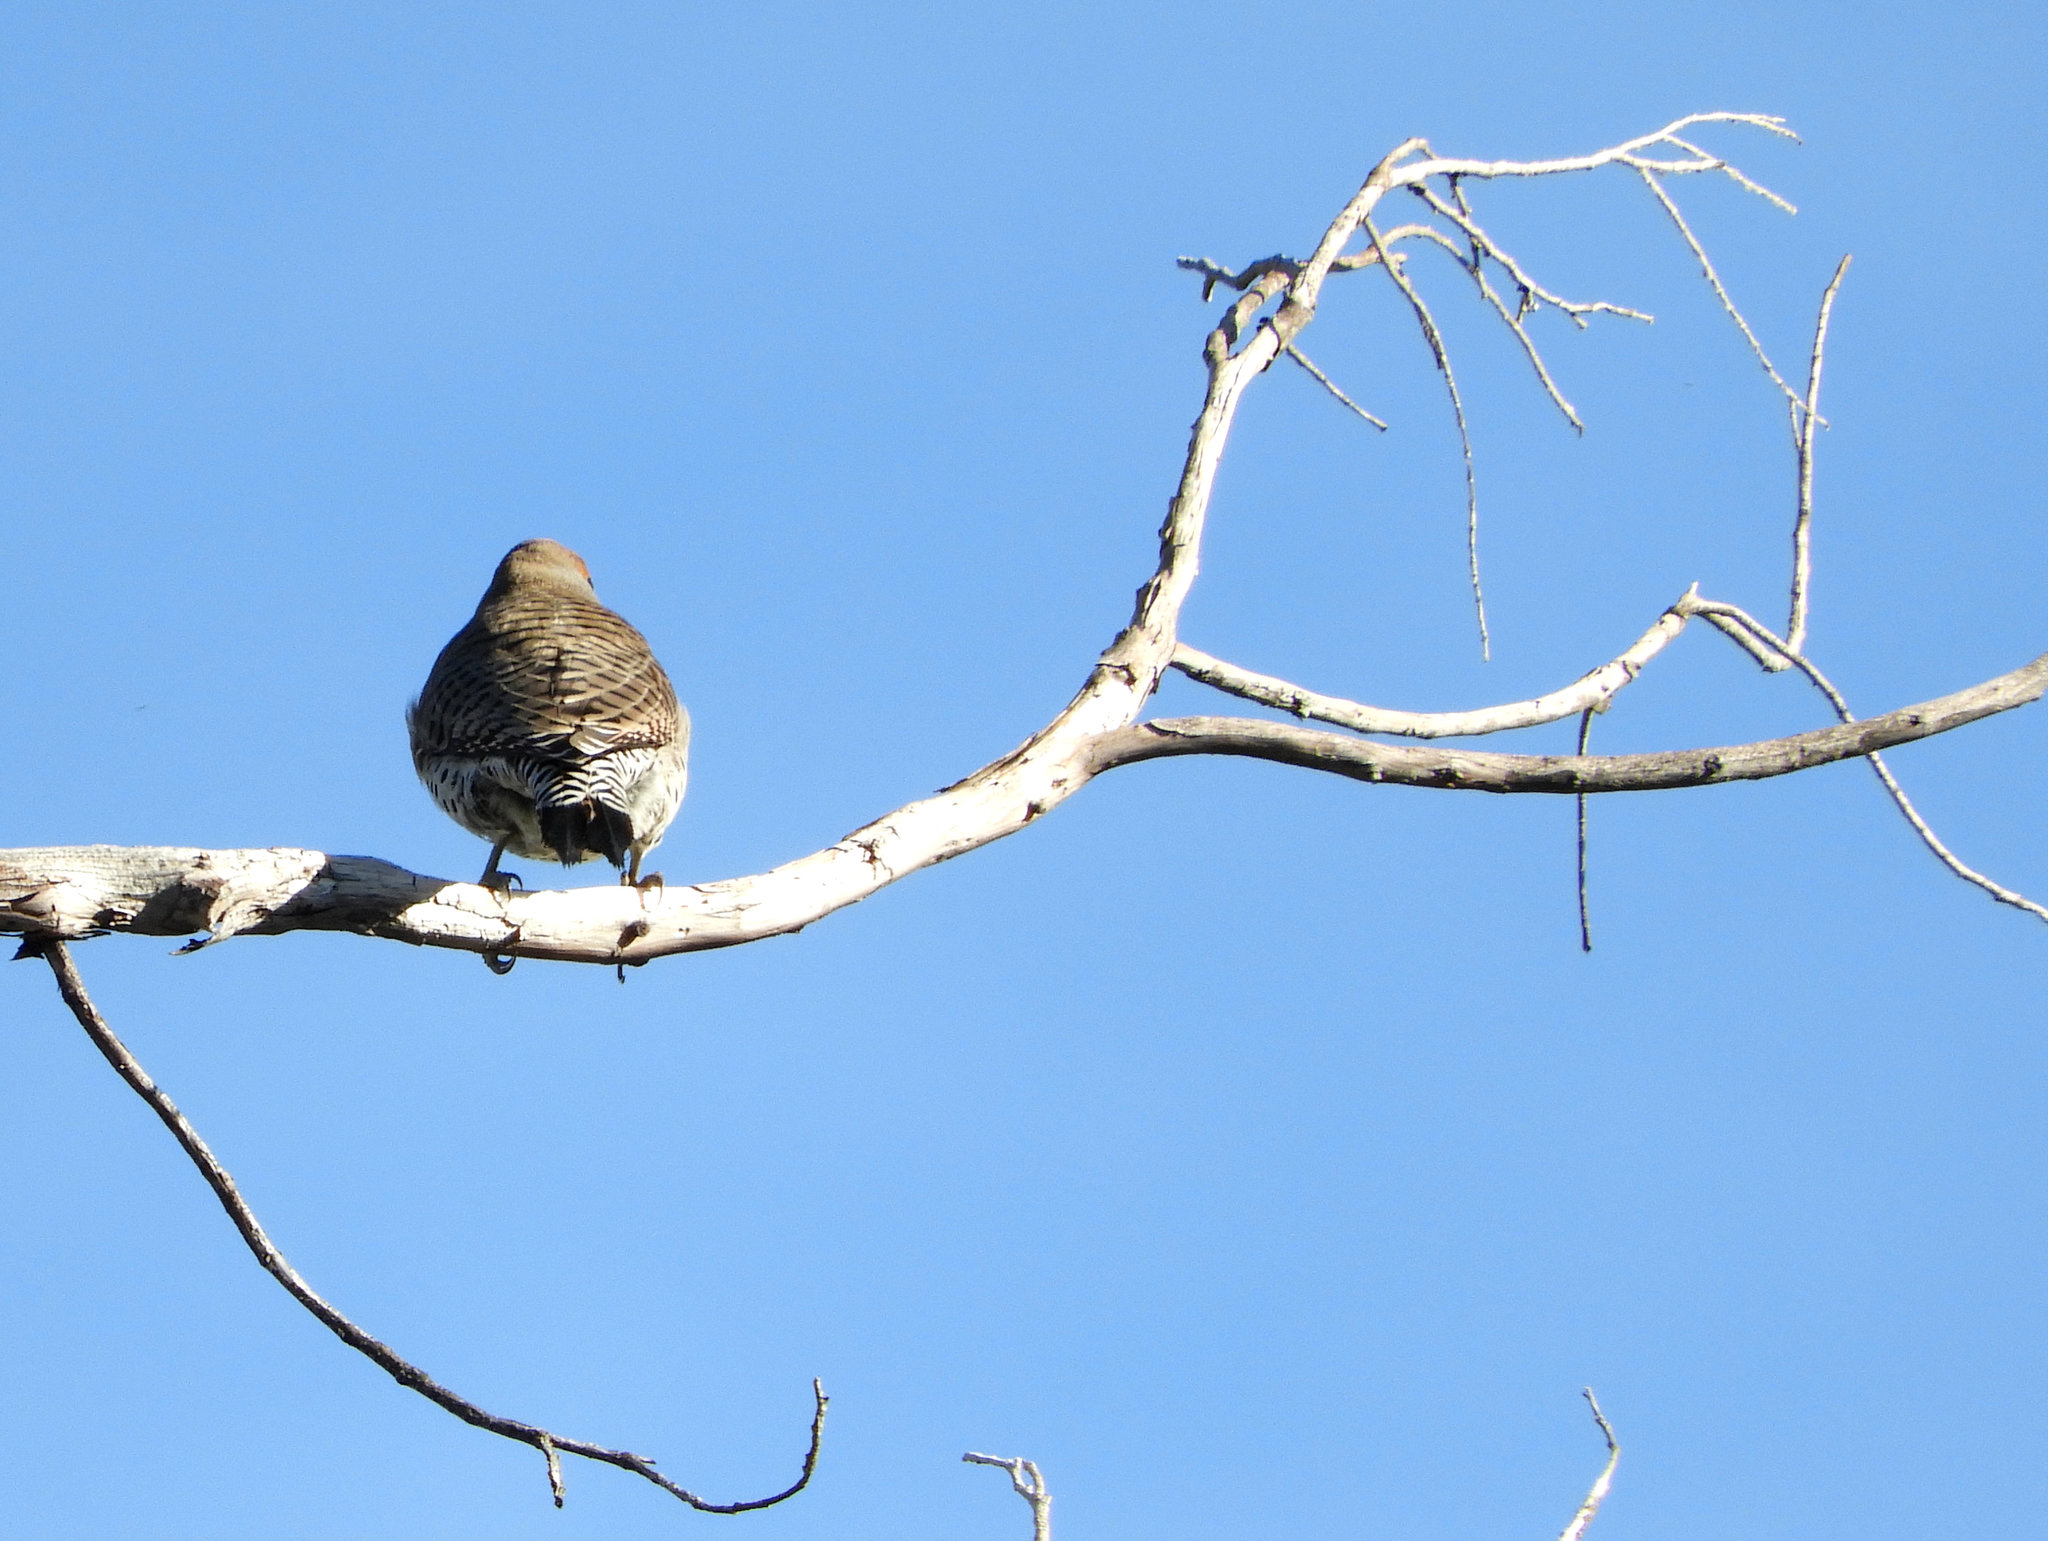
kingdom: Animalia
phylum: Chordata
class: Aves
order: Piciformes
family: Picidae
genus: Colaptes
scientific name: Colaptes auratus
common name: Northern flicker
